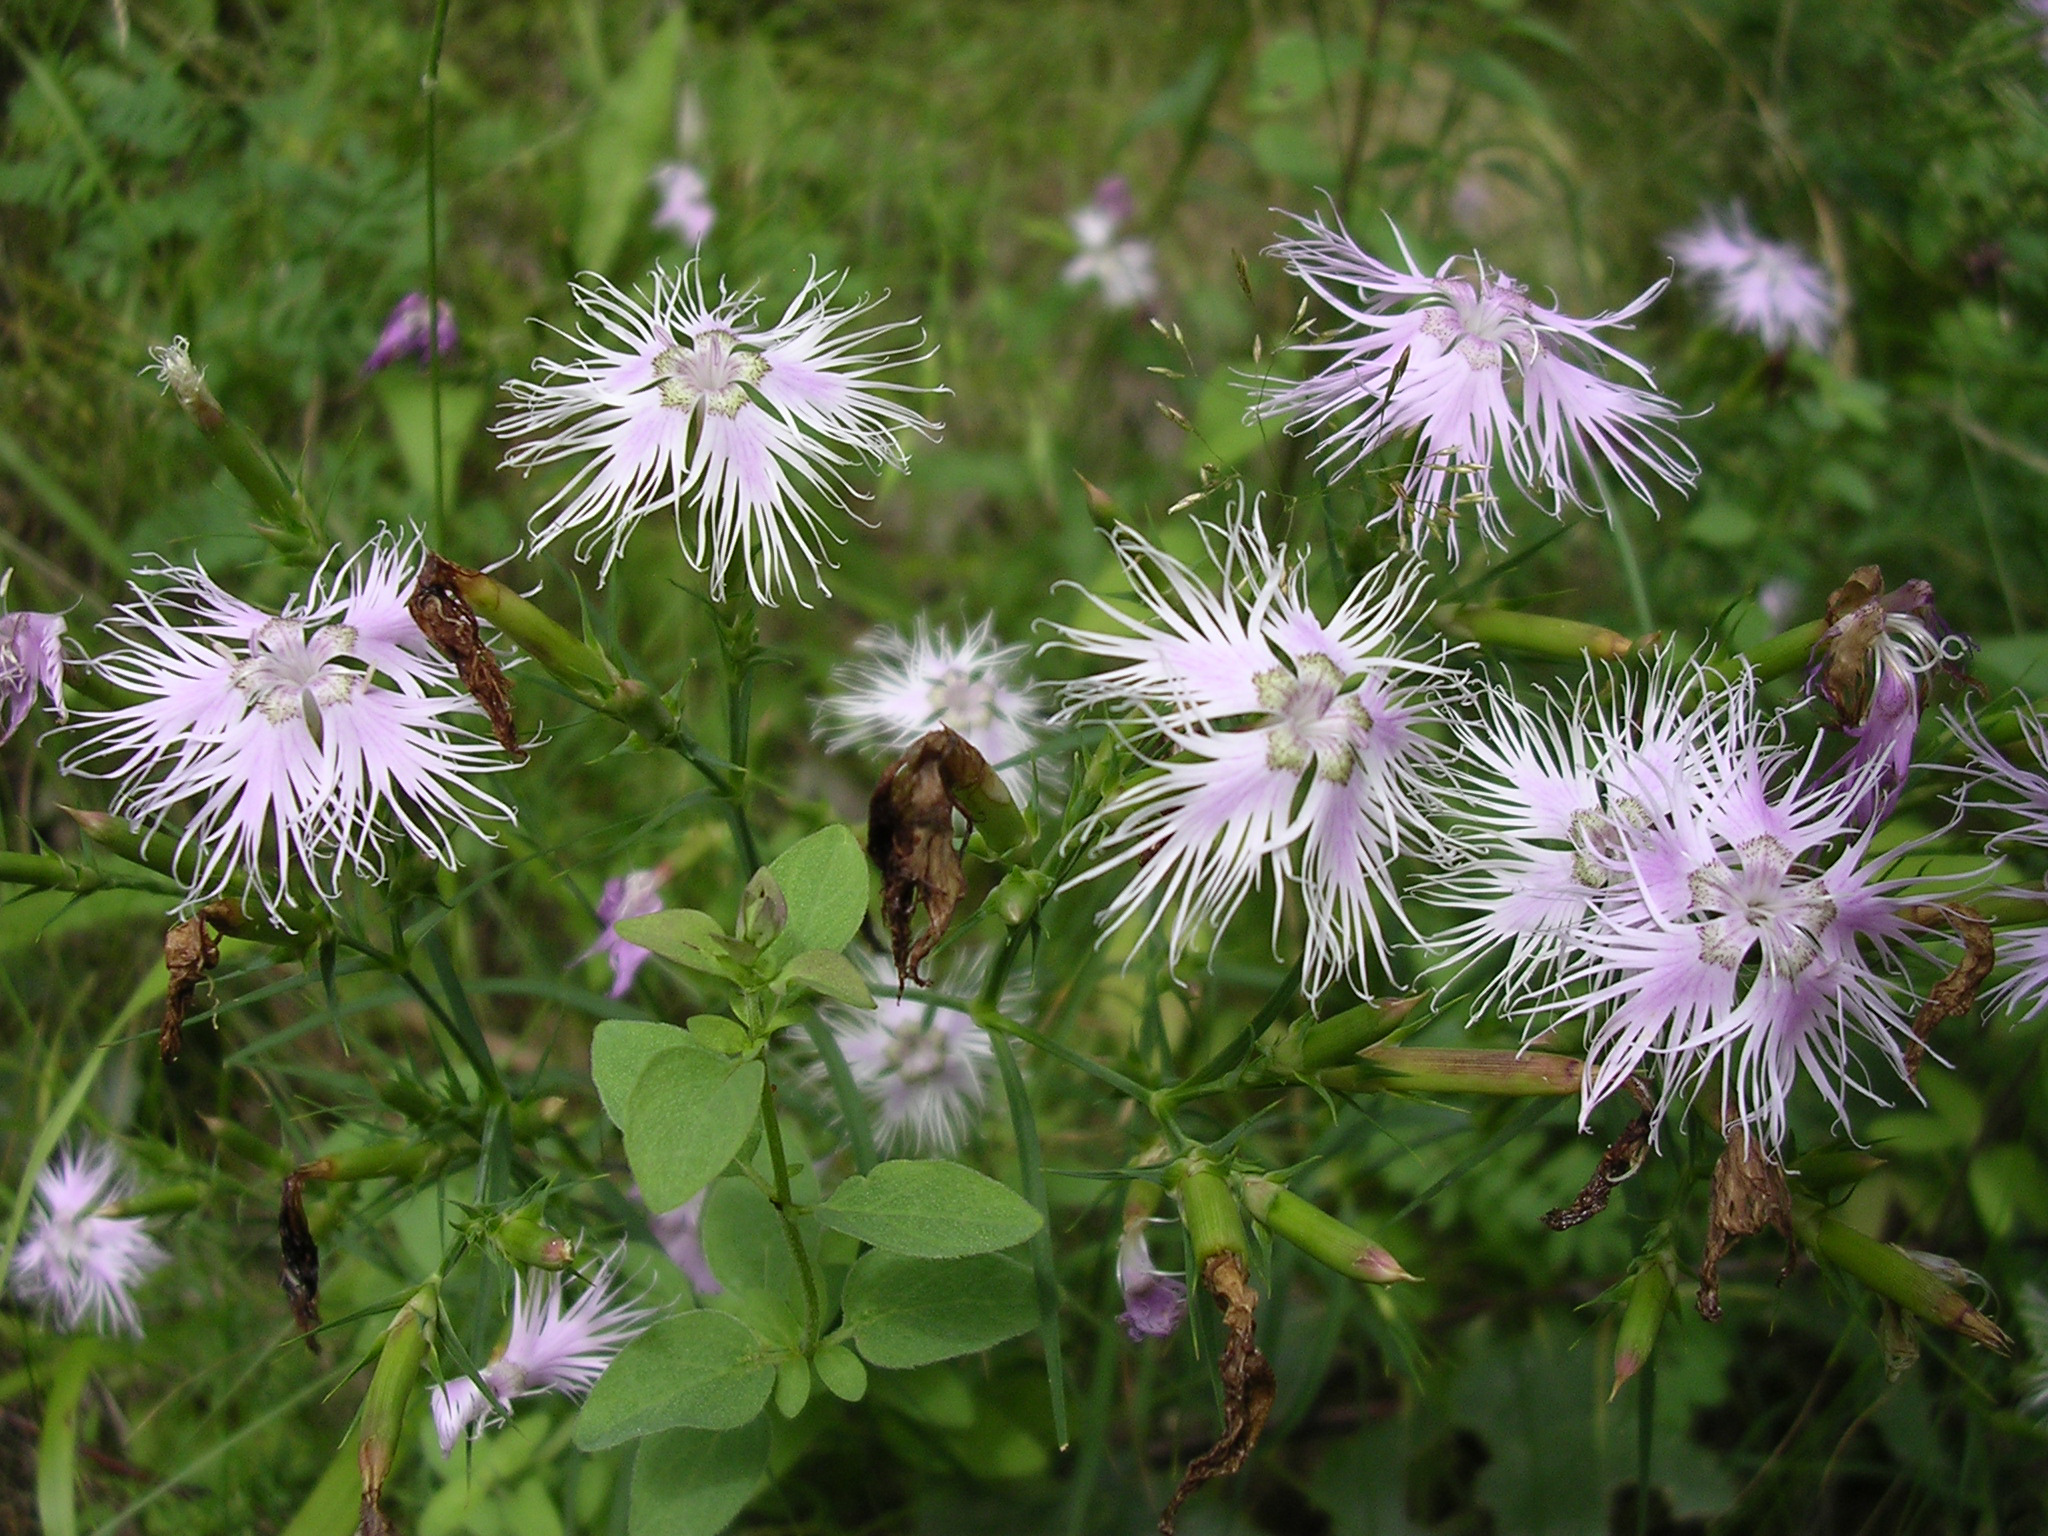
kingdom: Plantae
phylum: Tracheophyta
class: Magnoliopsida
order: Caryophyllales
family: Caryophyllaceae
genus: Dianthus
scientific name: Dianthus hyssopifolius
